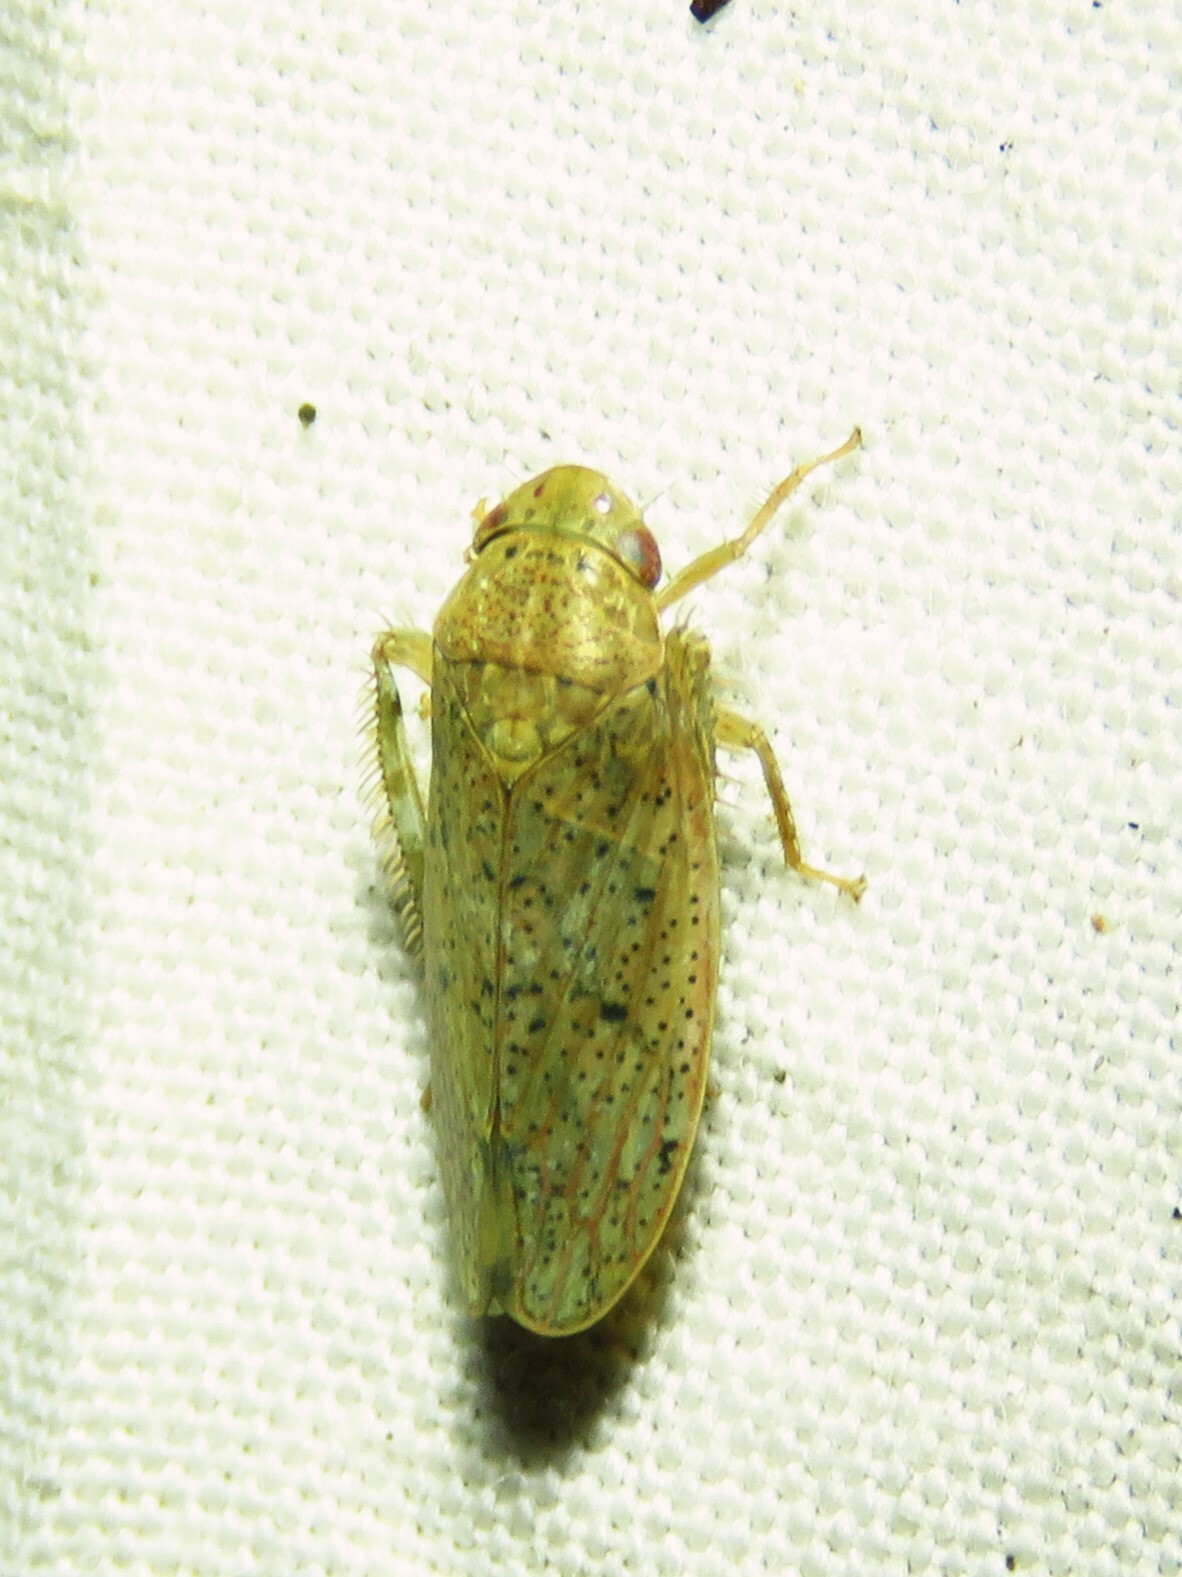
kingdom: Animalia
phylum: Arthropoda
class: Insecta
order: Hemiptera
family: Cicadellidae
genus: Ponana
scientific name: Ponana puncticollis
